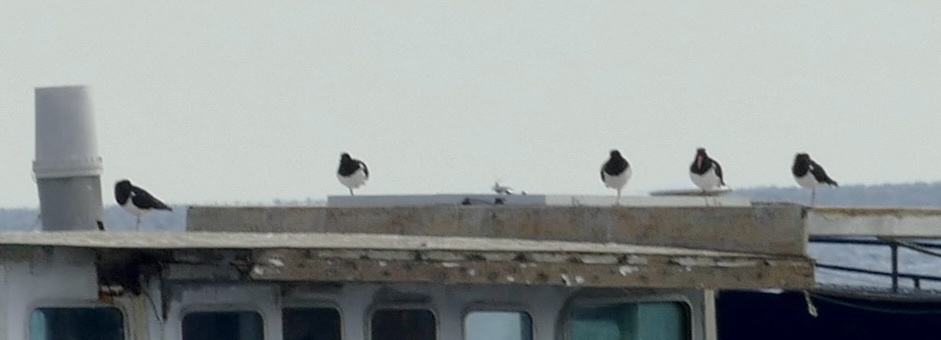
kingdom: Animalia
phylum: Chordata
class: Aves
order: Charadriiformes
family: Haematopodidae
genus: Haematopus
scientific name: Haematopus longirostris
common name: Pied oystercatcher
